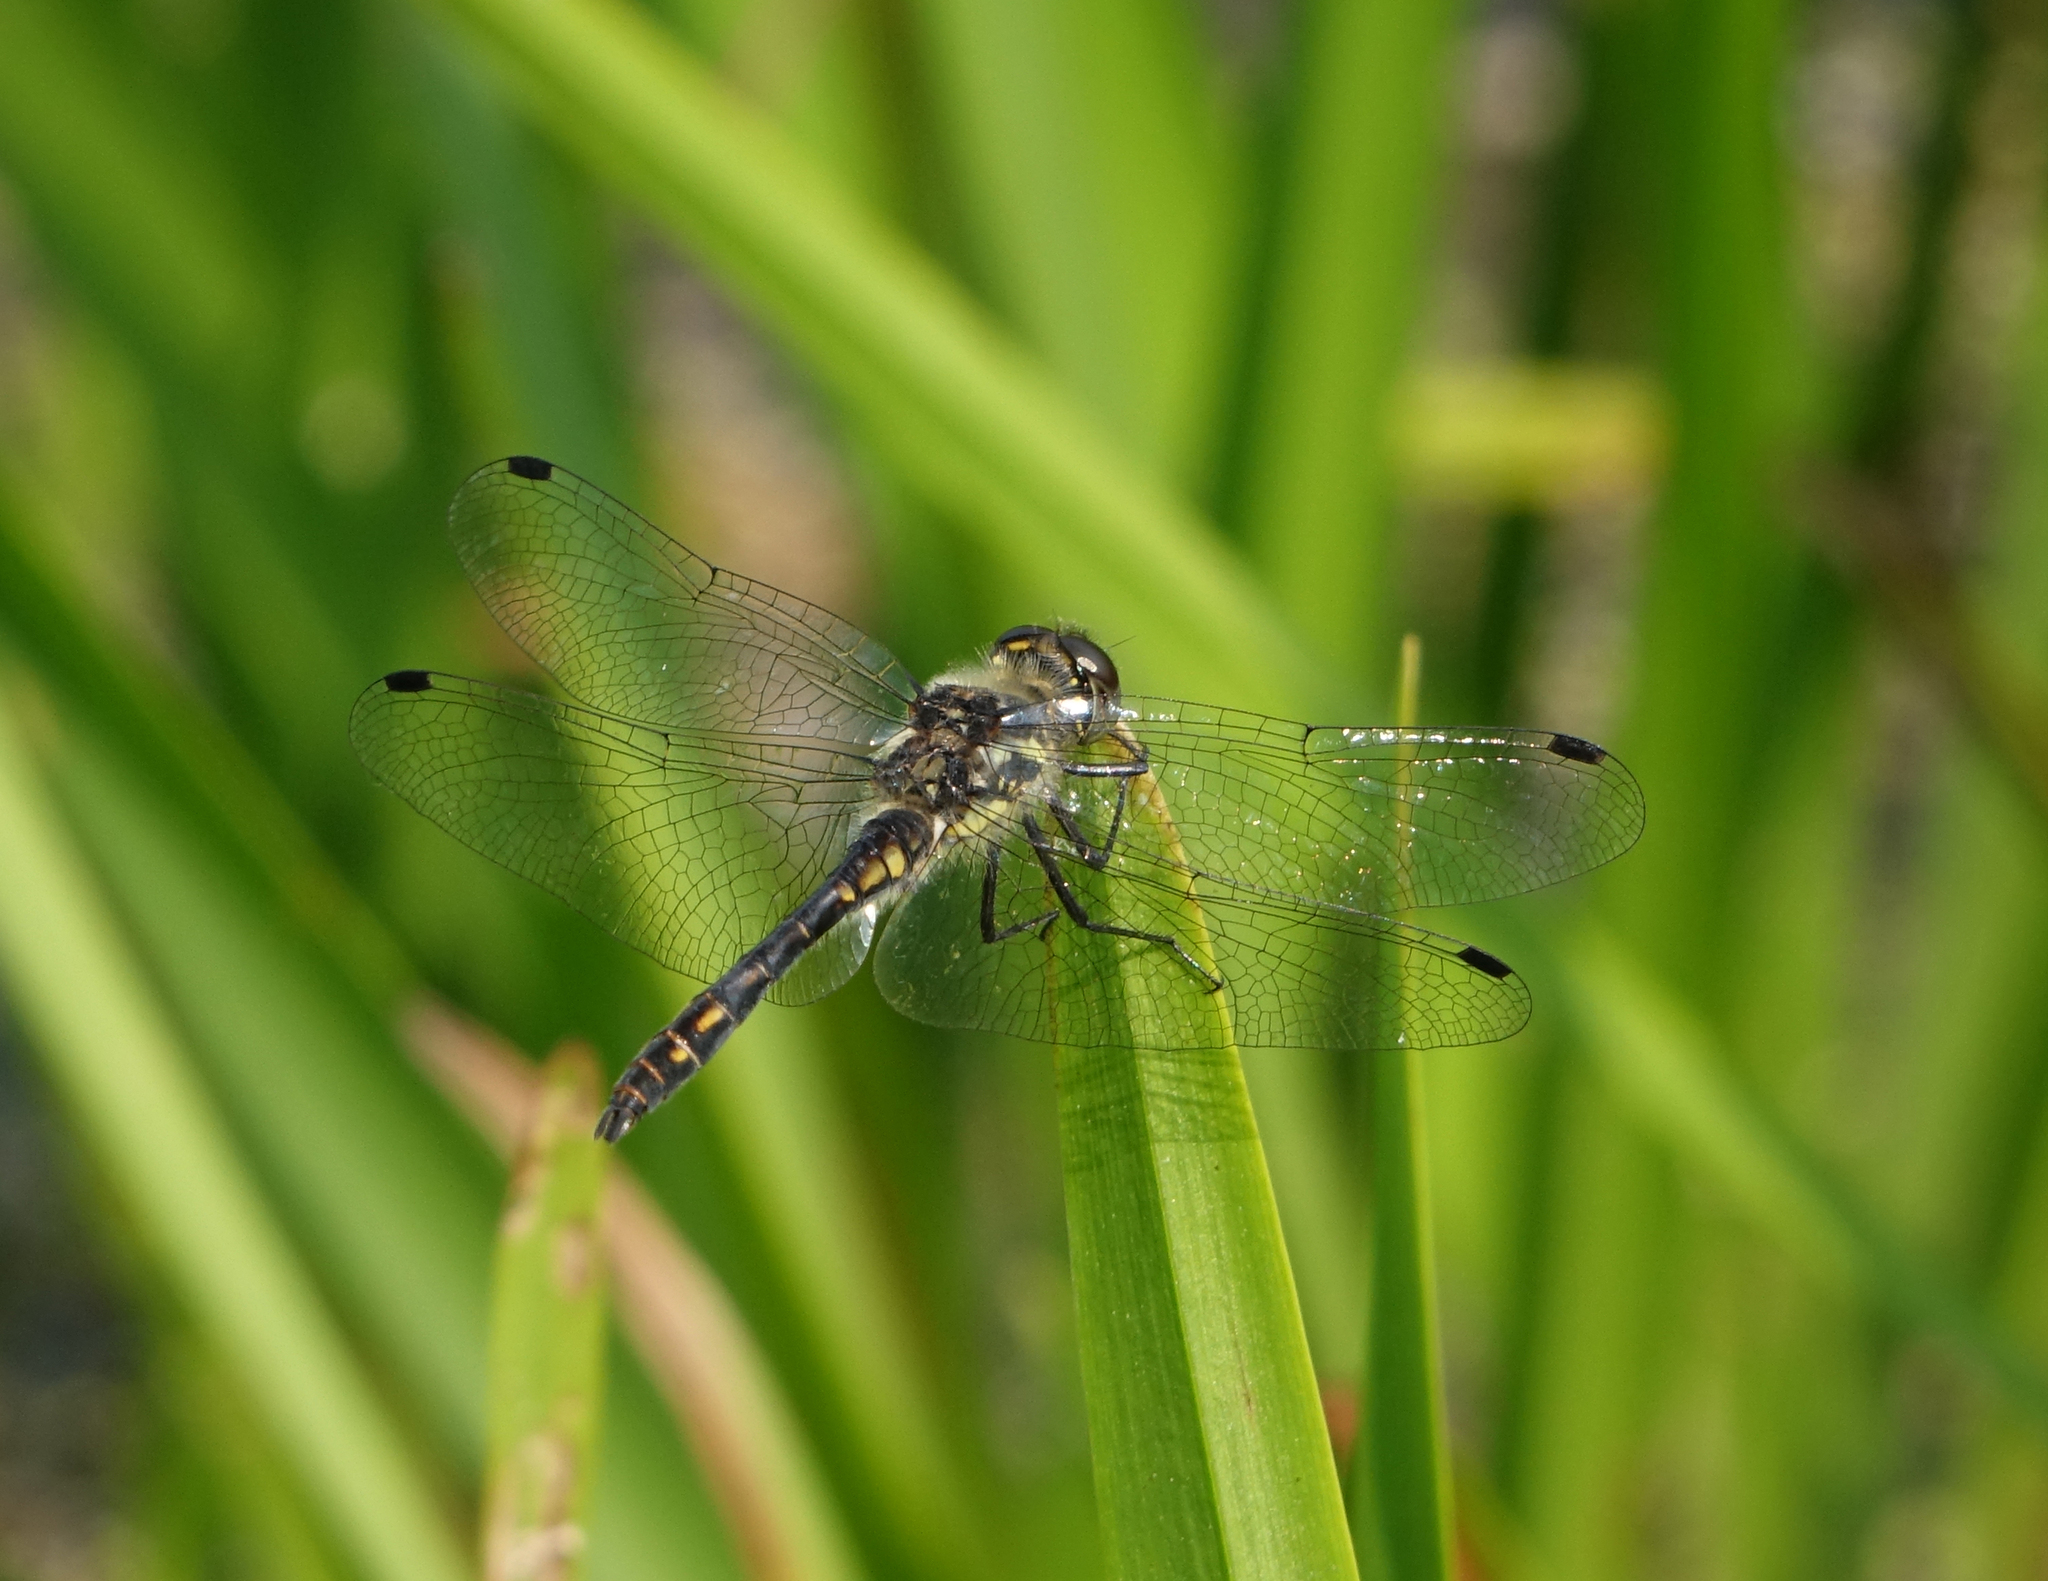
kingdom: Animalia
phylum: Arthropoda
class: Insecta
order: Odonata
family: Libellulidae
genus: Sympetrum
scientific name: Sympetrum danae
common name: Black darter
